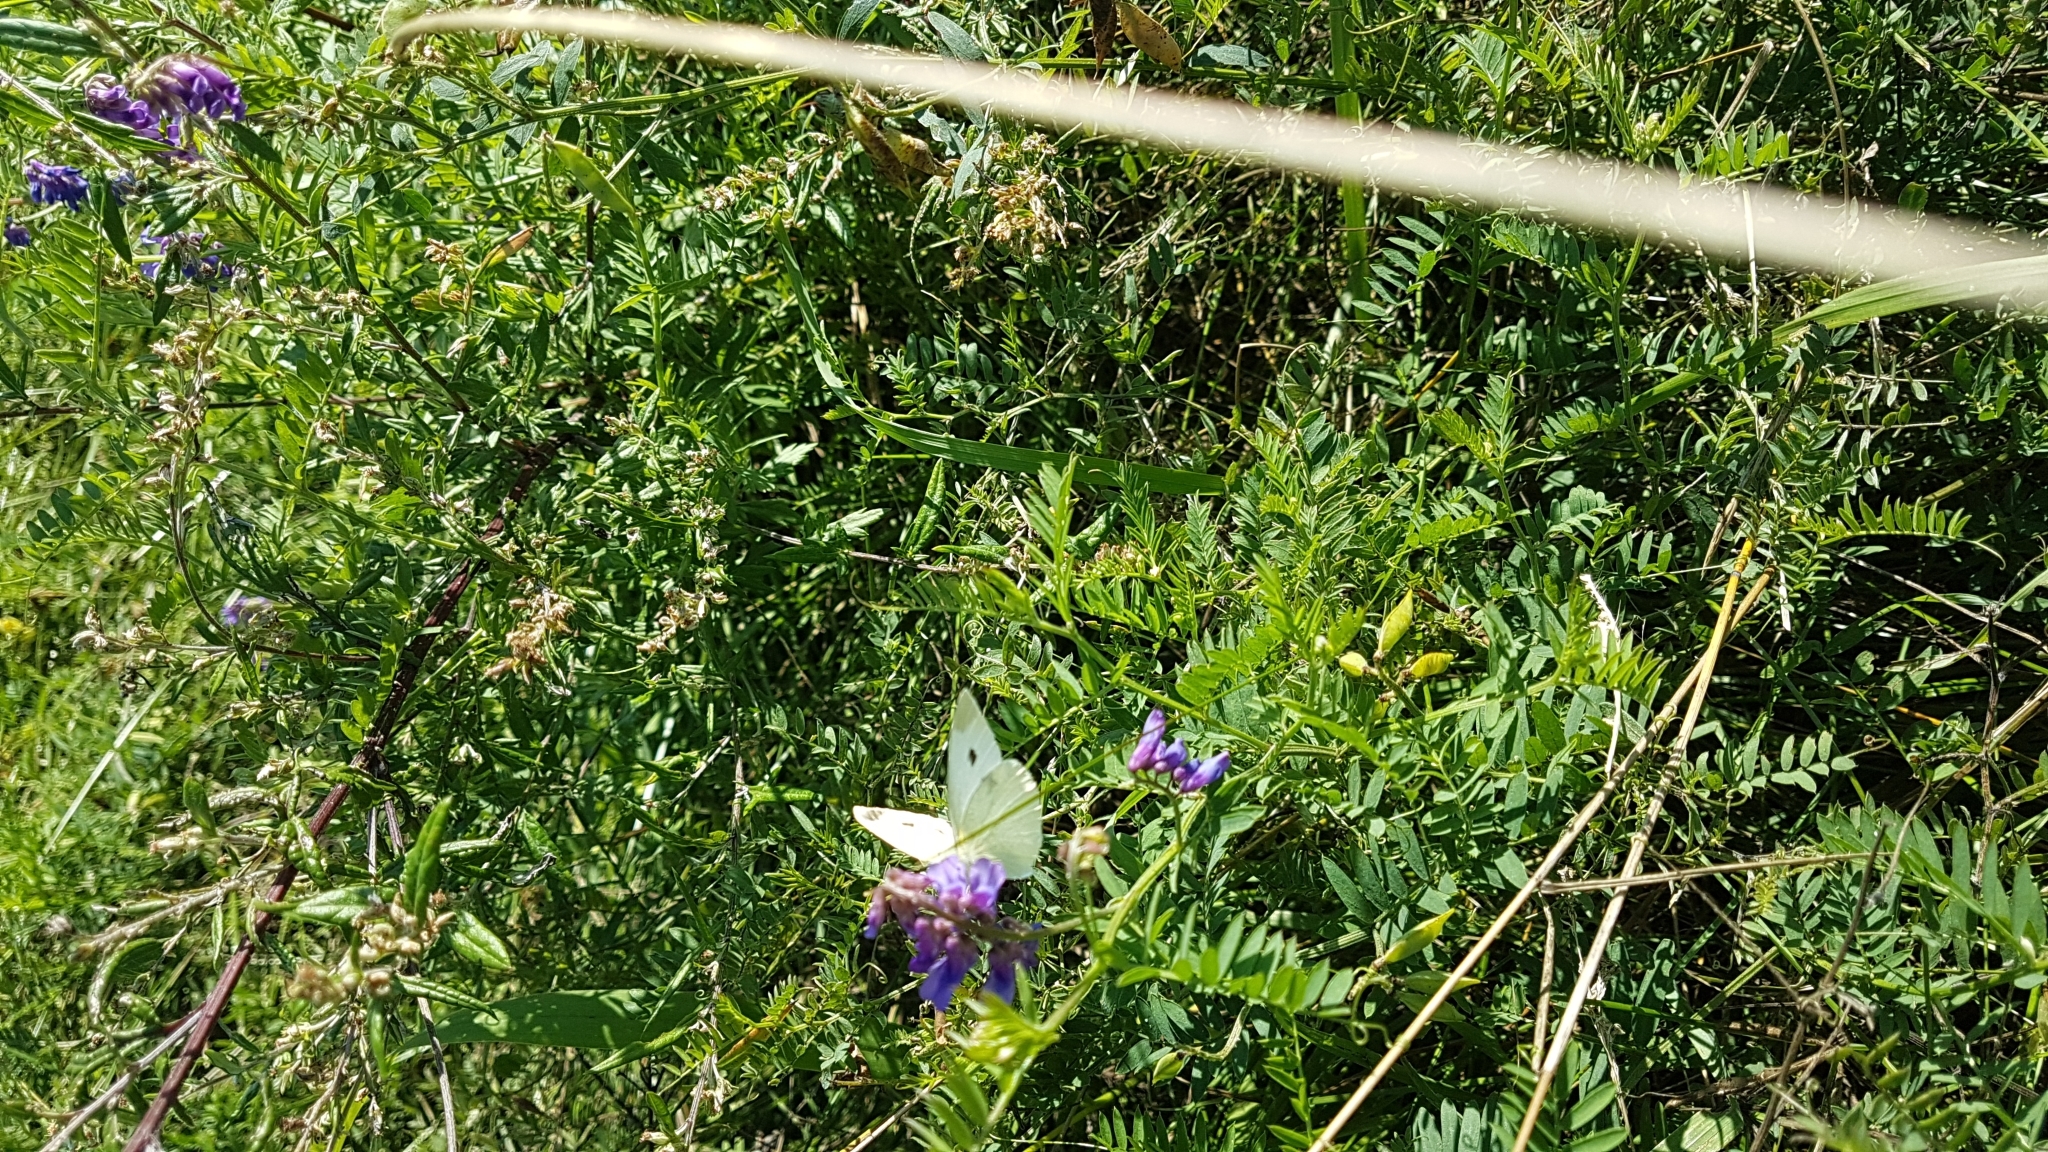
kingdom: Animalia
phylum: Arthropoda
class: Insecta
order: Lepidoptera
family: Pieridae
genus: Pieris
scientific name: Pieris rapae
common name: Small white
